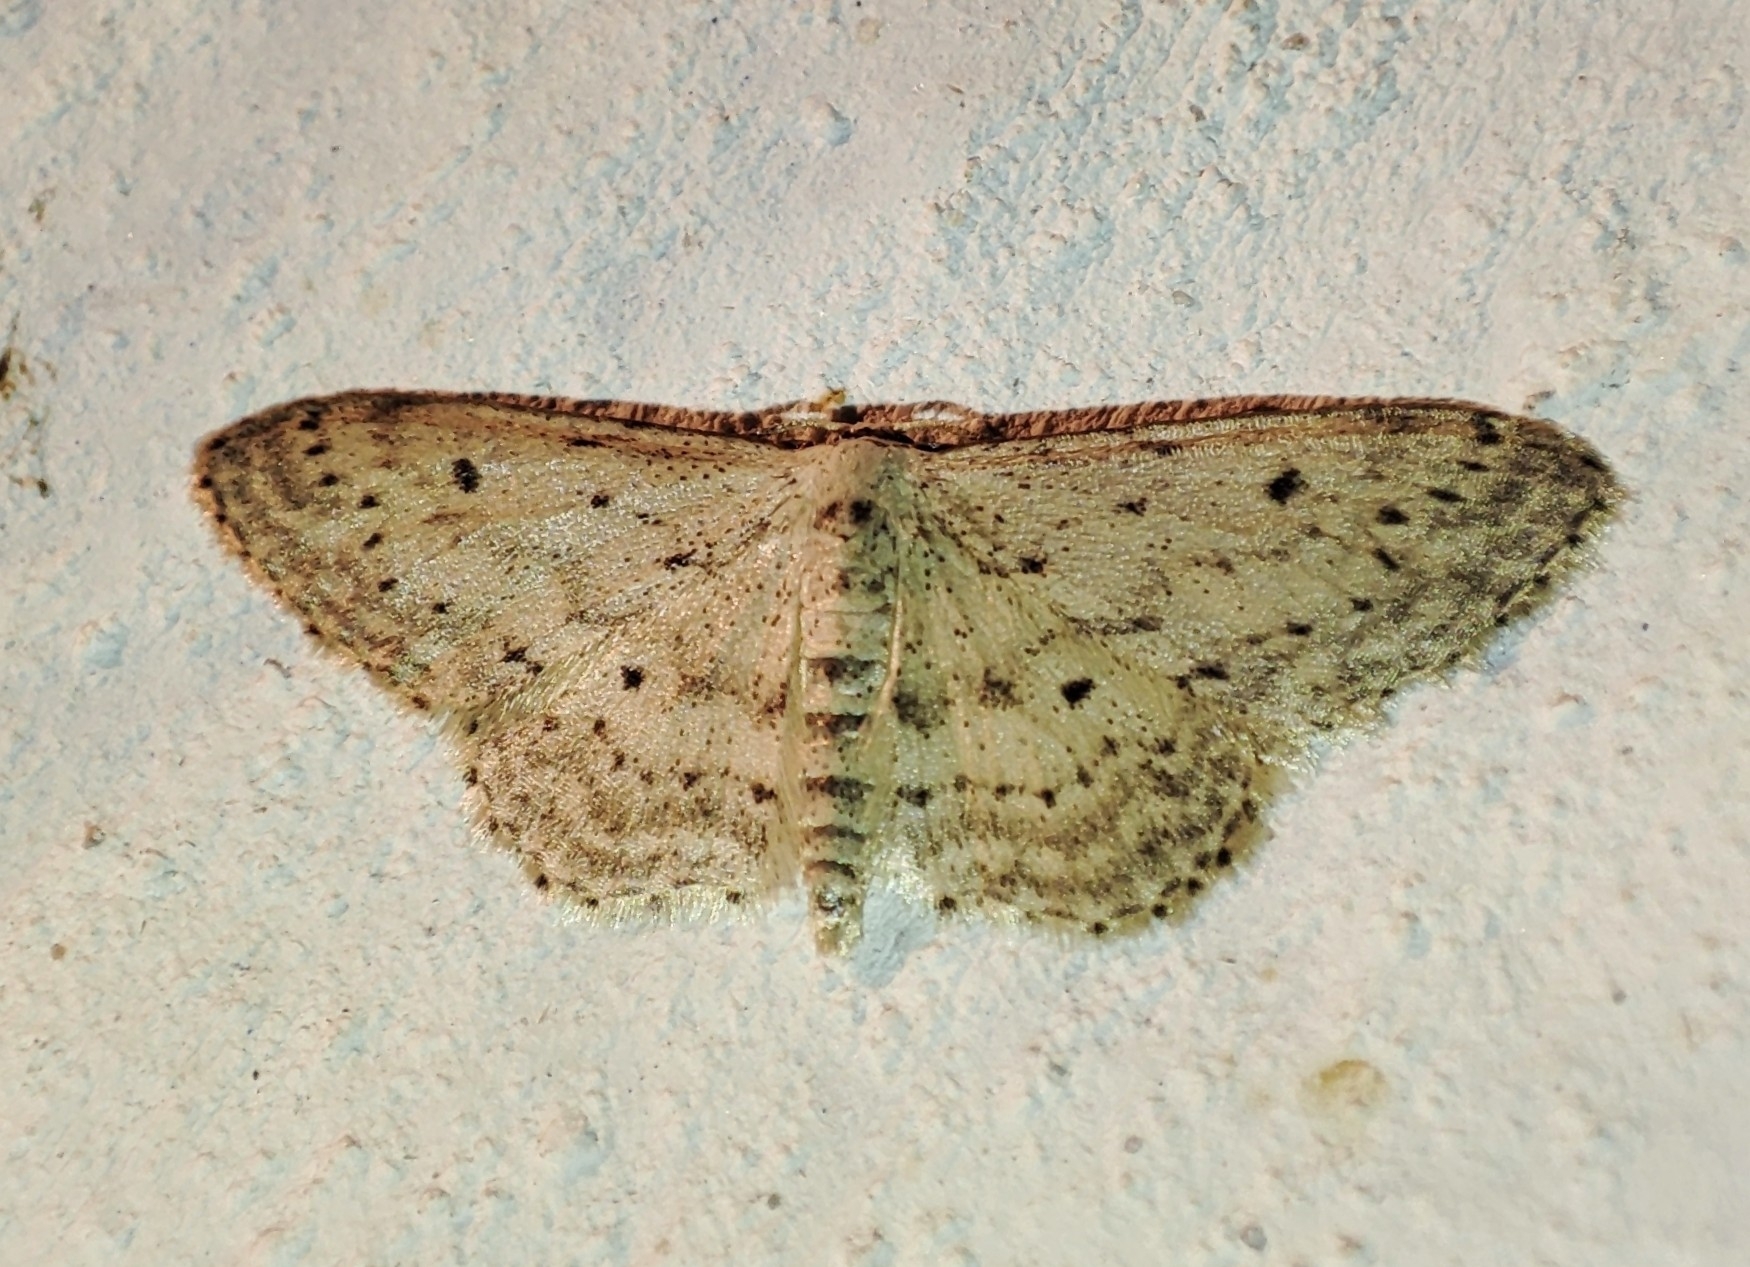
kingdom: Animalia
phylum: Arthropoda
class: Insecta
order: Lepidoptera
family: Geometridae
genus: Idaea
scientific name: Idaea seriata
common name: Small dusty wave
